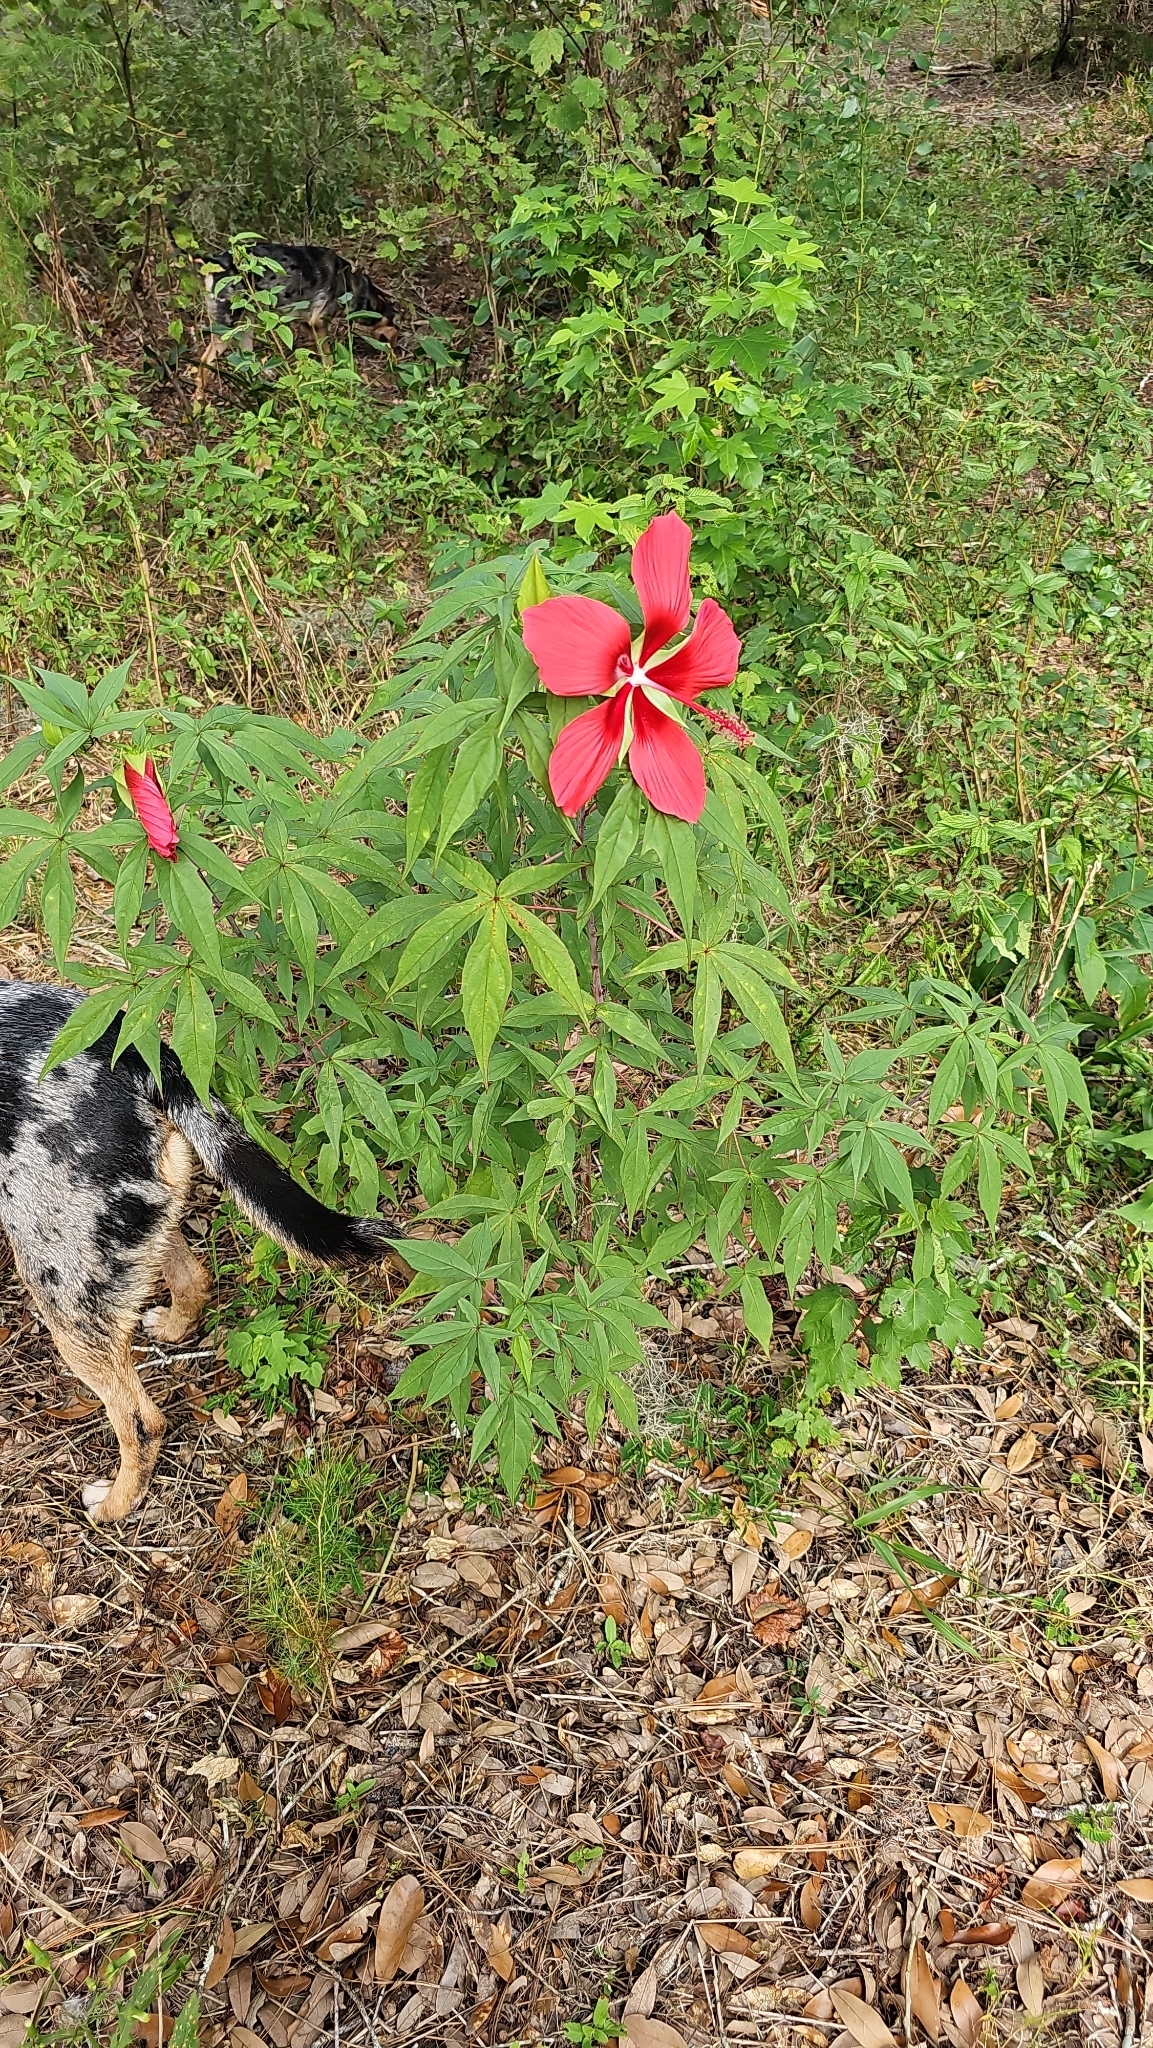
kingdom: Plantae
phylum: Tracheophyta
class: Magnoliopsida
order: Malvales
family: Malvaceae
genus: Hibiscus
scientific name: Hibiscus coccineus
